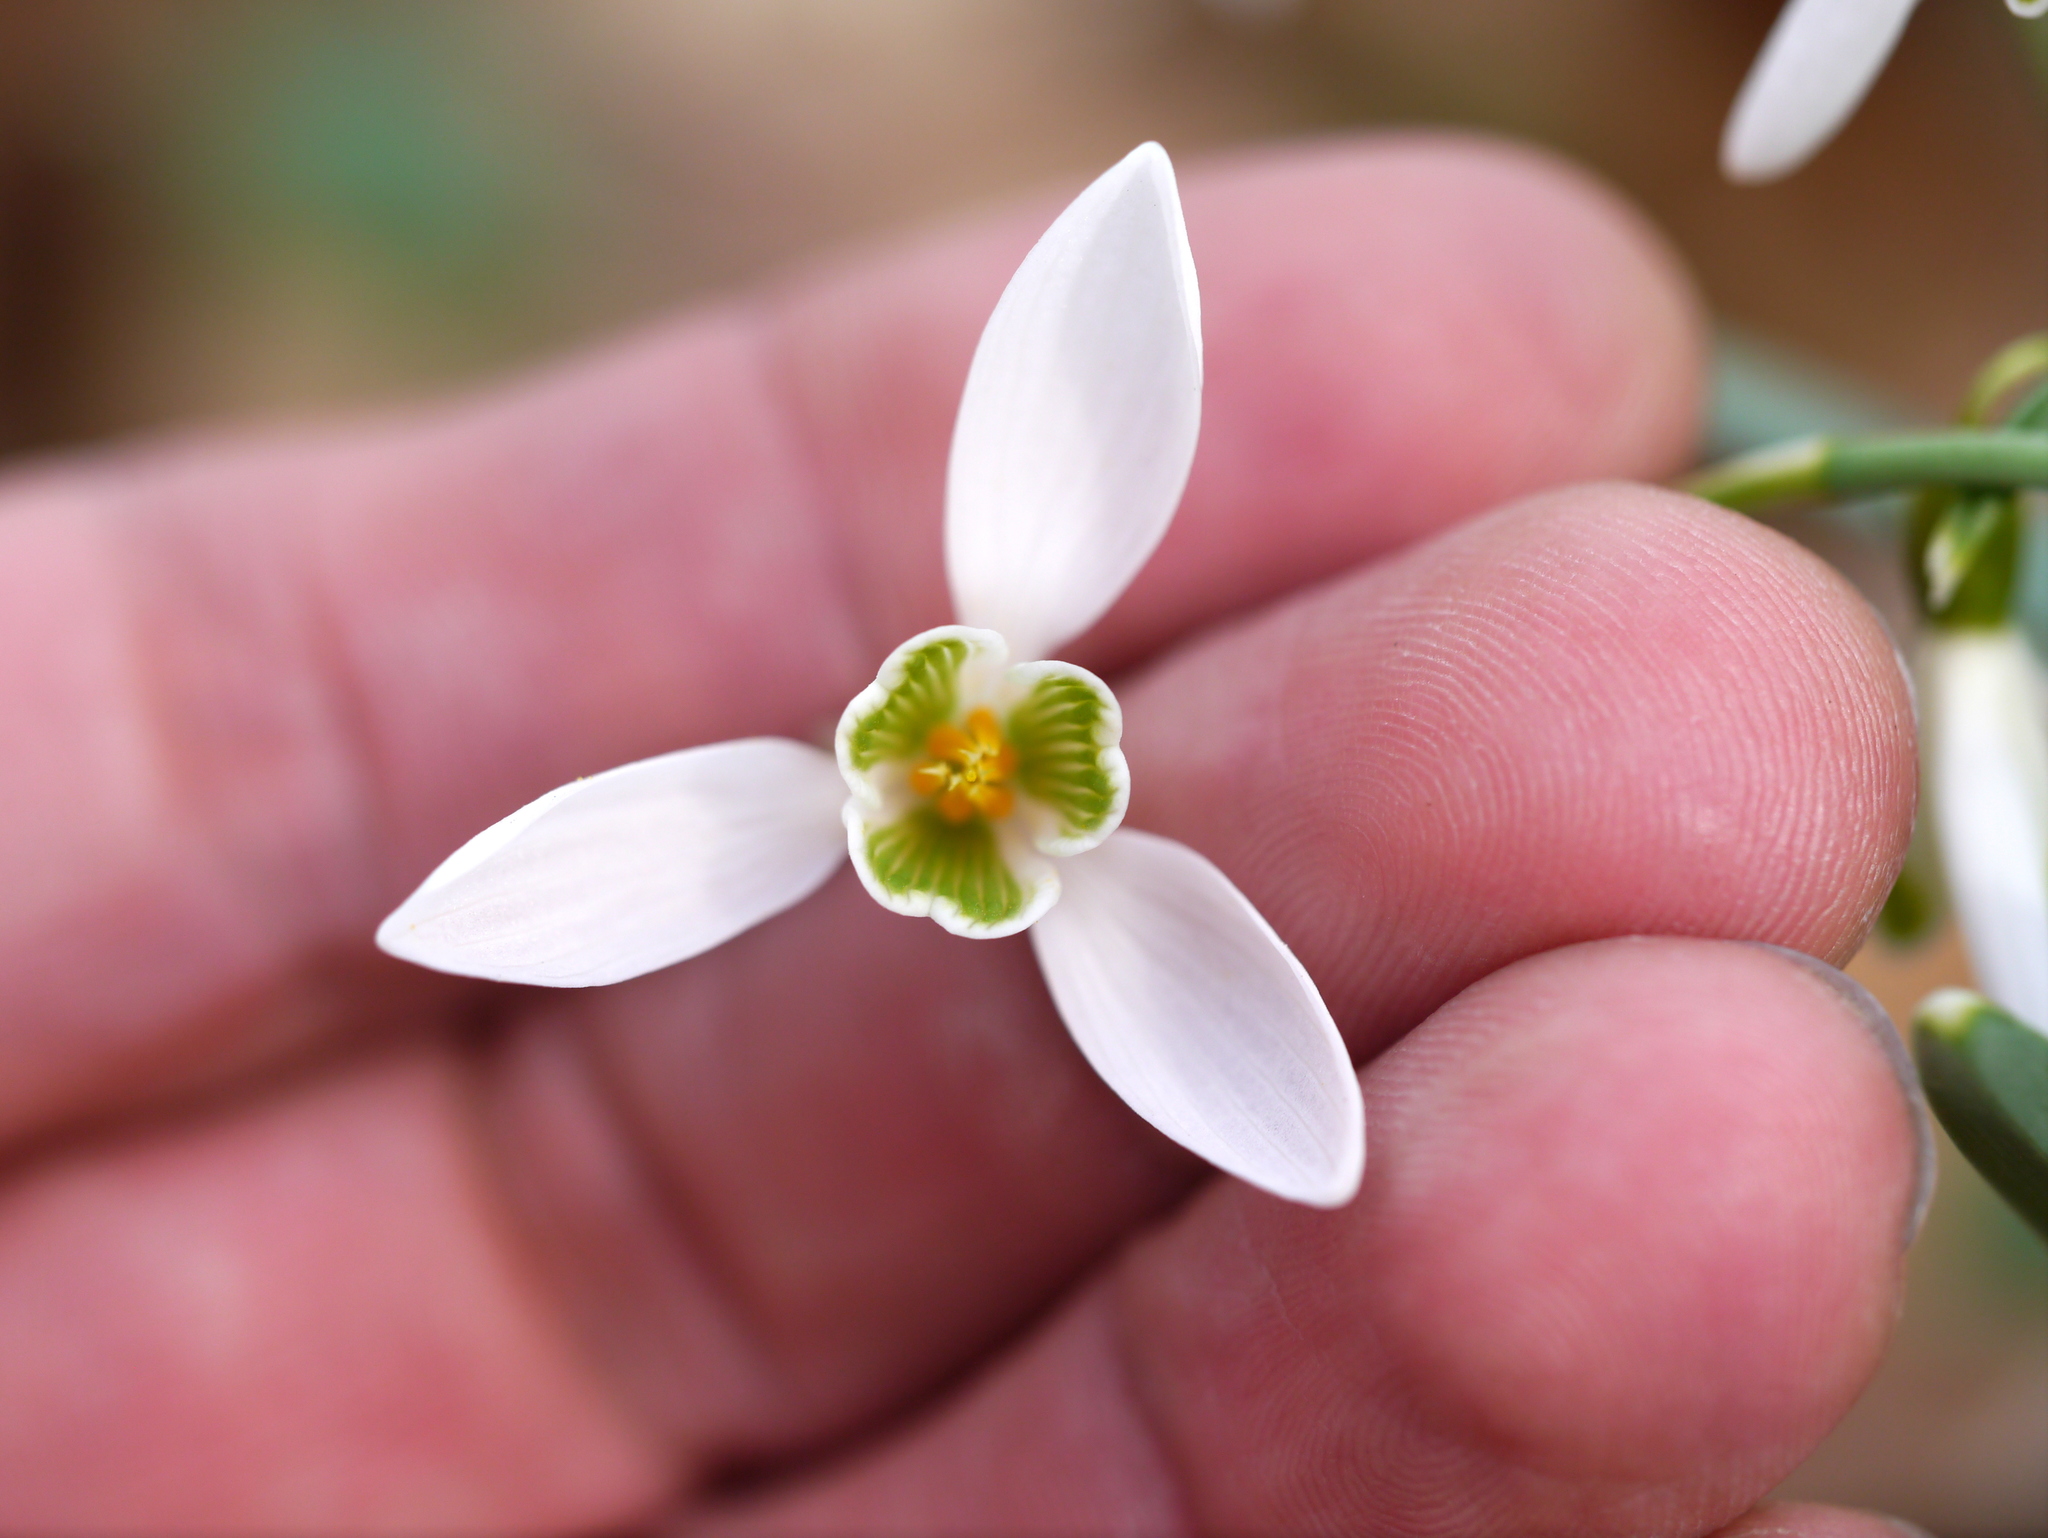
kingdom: Plantae
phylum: Tracheophyta
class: Liliopsida
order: Asparagales
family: Amaryllidaceae
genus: Galanthus
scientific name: Galanthus nivalis
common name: Snowdrop
